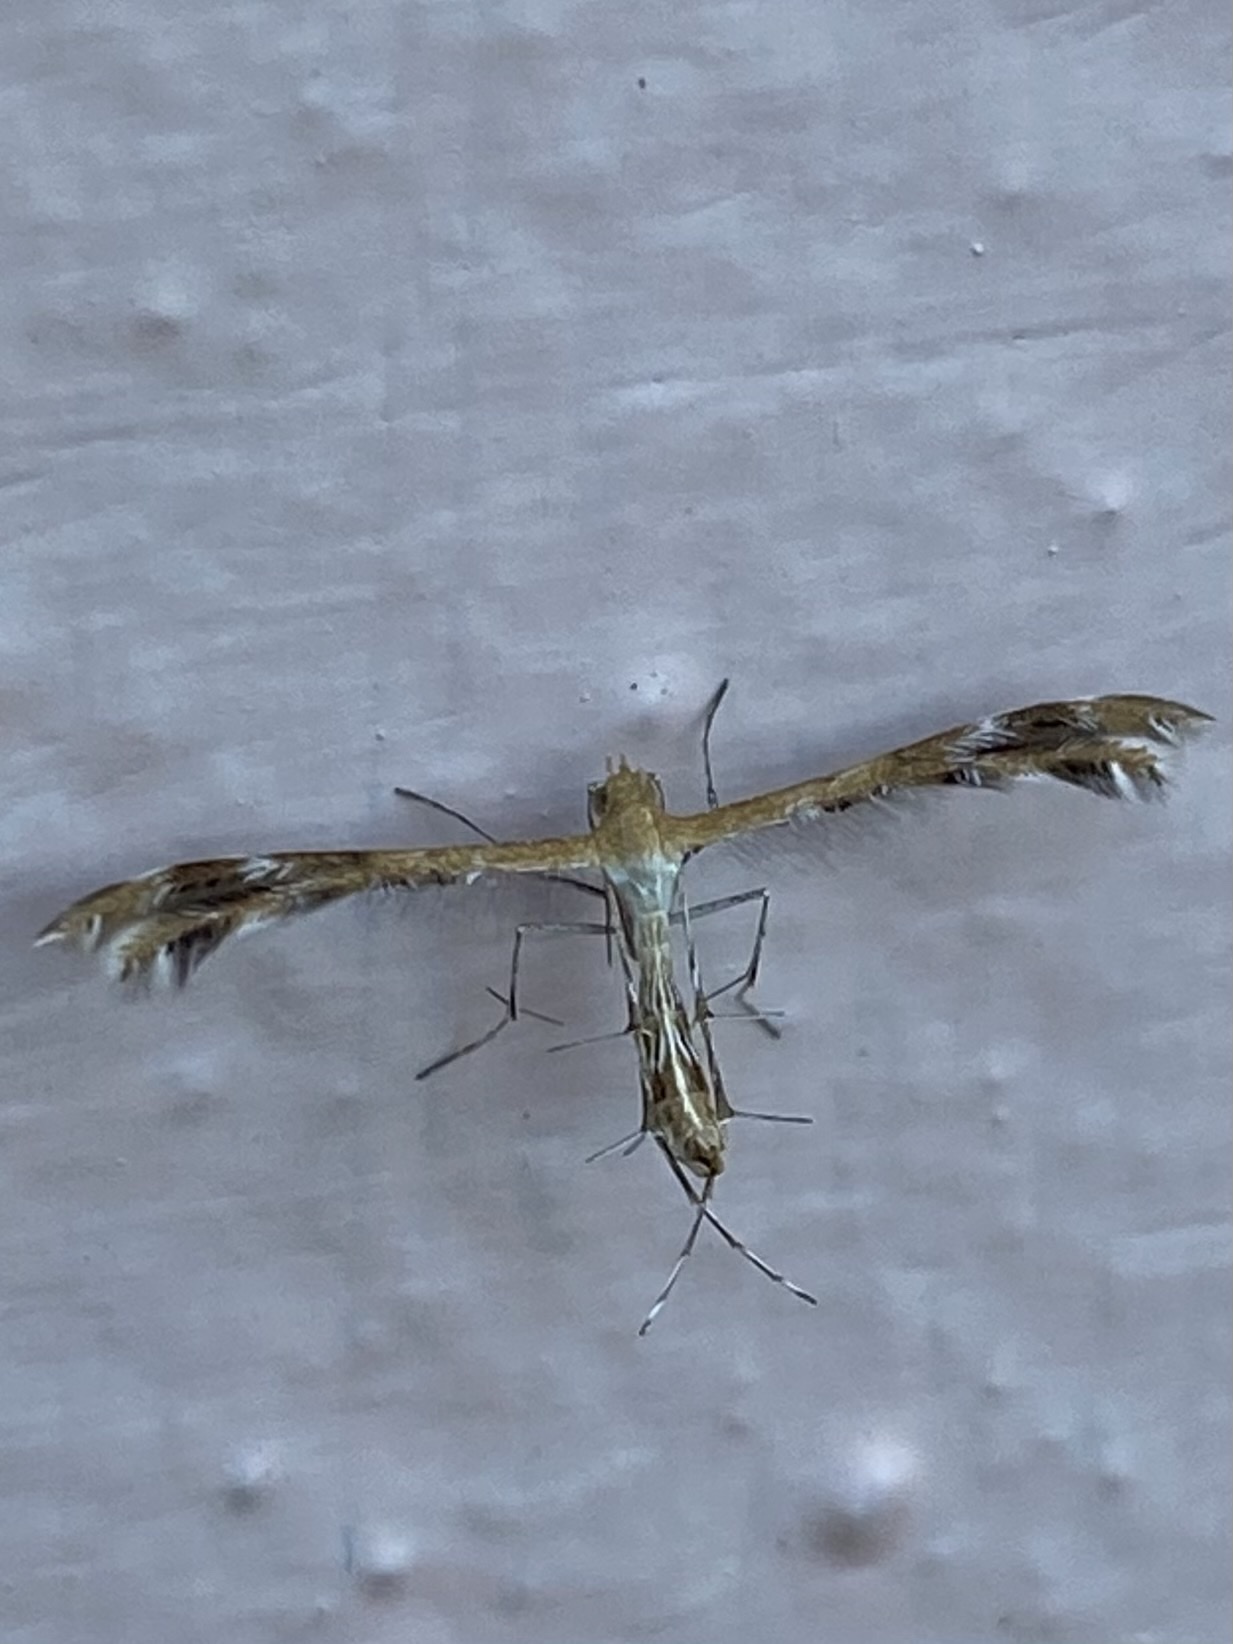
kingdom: Animalia
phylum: Arthropoda
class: Insecta
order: Lepidoptera
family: Pterophoridae
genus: Megalorhipida
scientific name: Megalorhipida leucodactylus
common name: Plume moth
